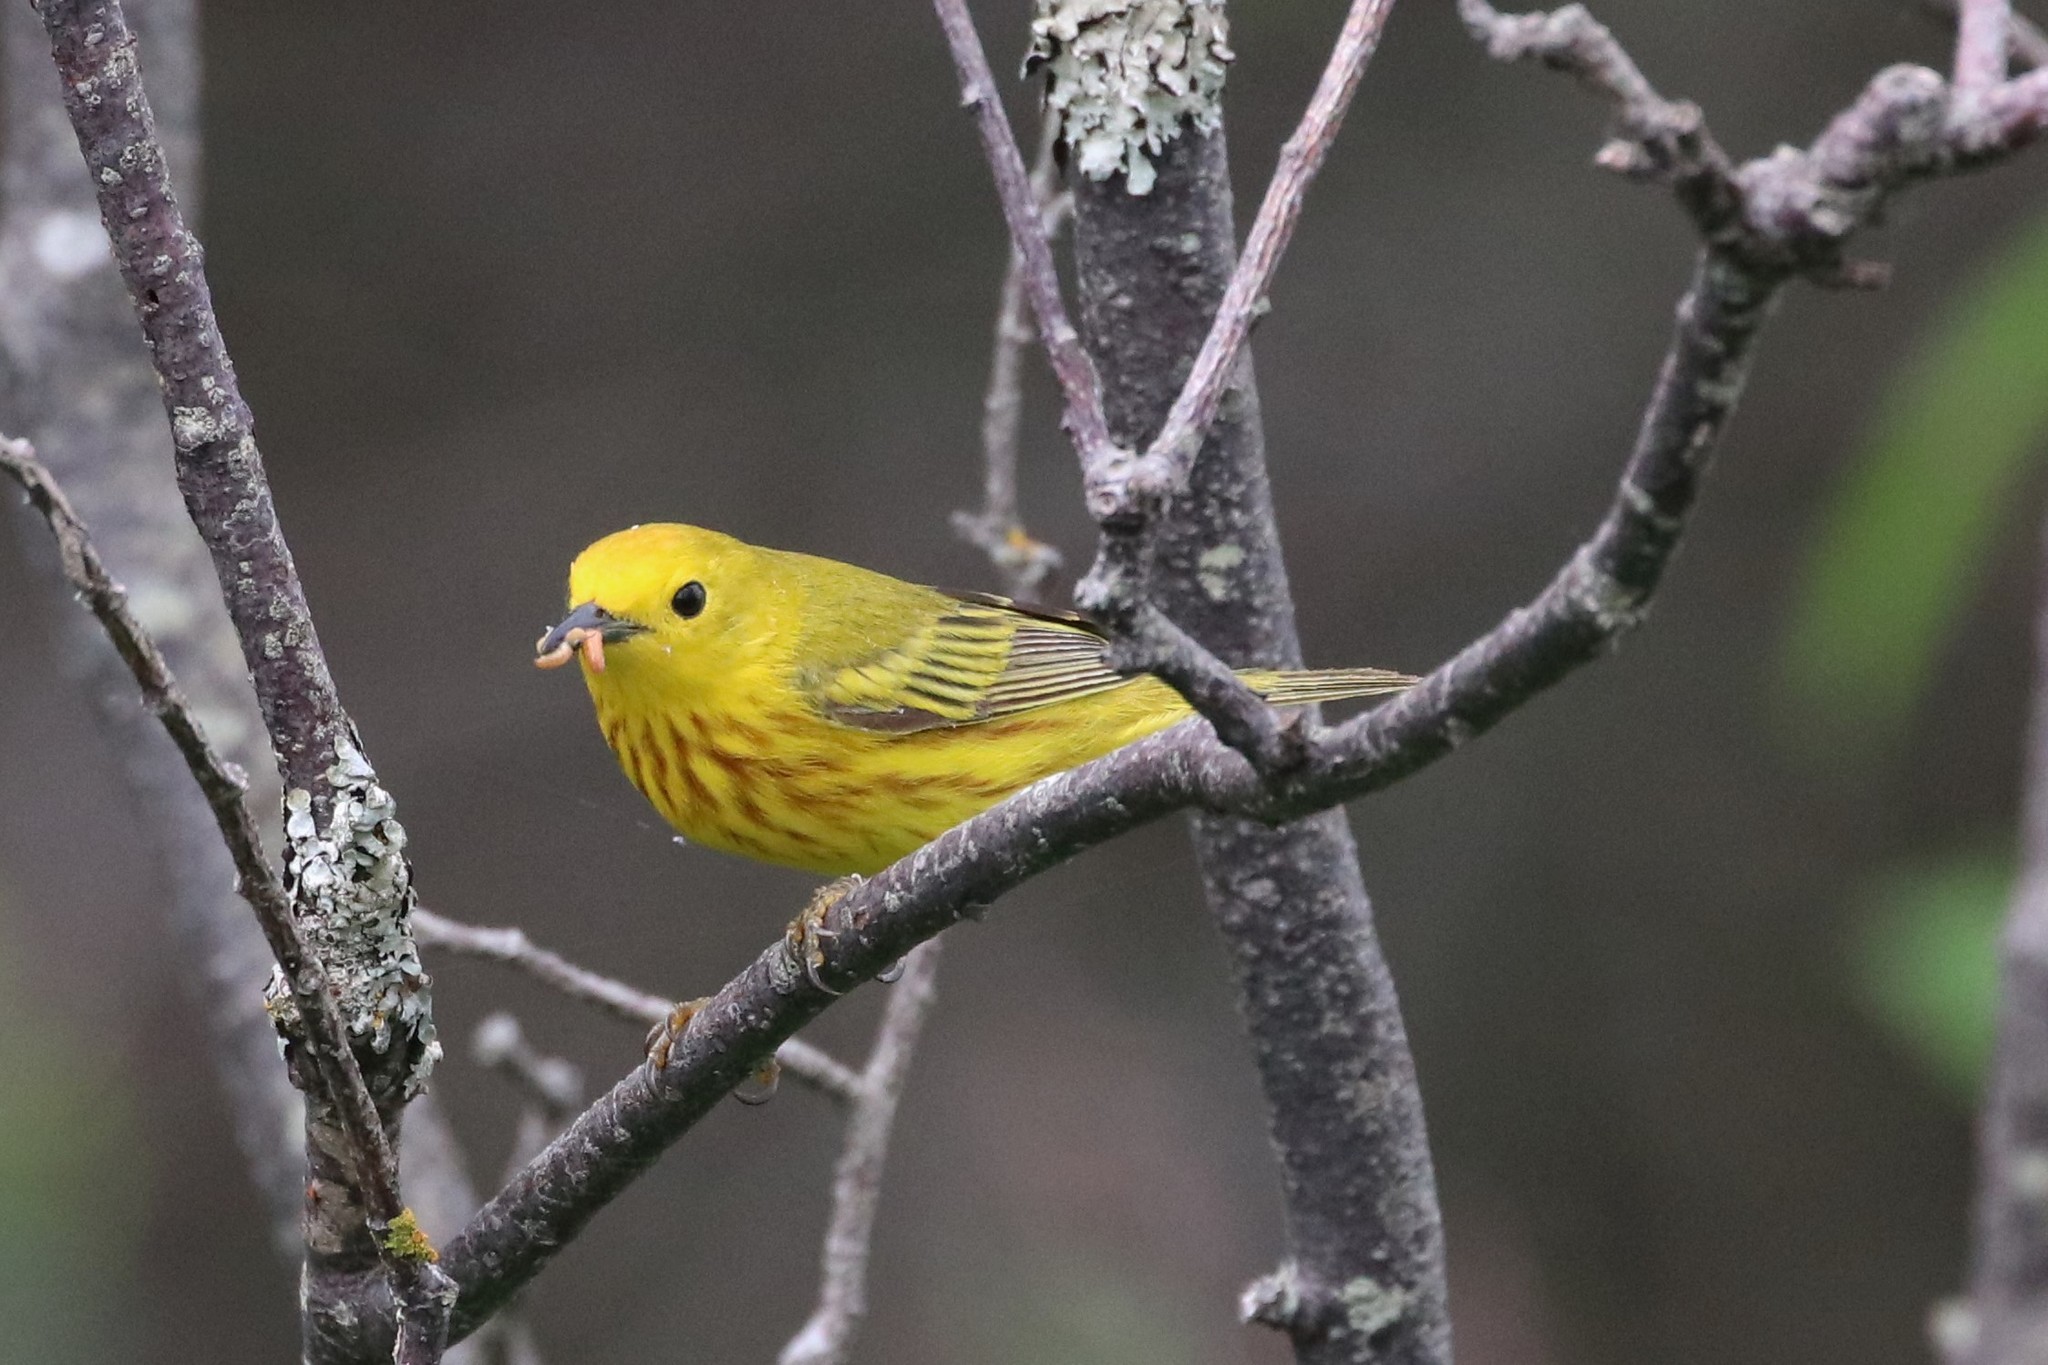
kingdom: Animalia
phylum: Chordata
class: Aves
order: Passeriformes
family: Parulidae
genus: Setophaga
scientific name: Setophaga petechia
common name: Yellow warbler
